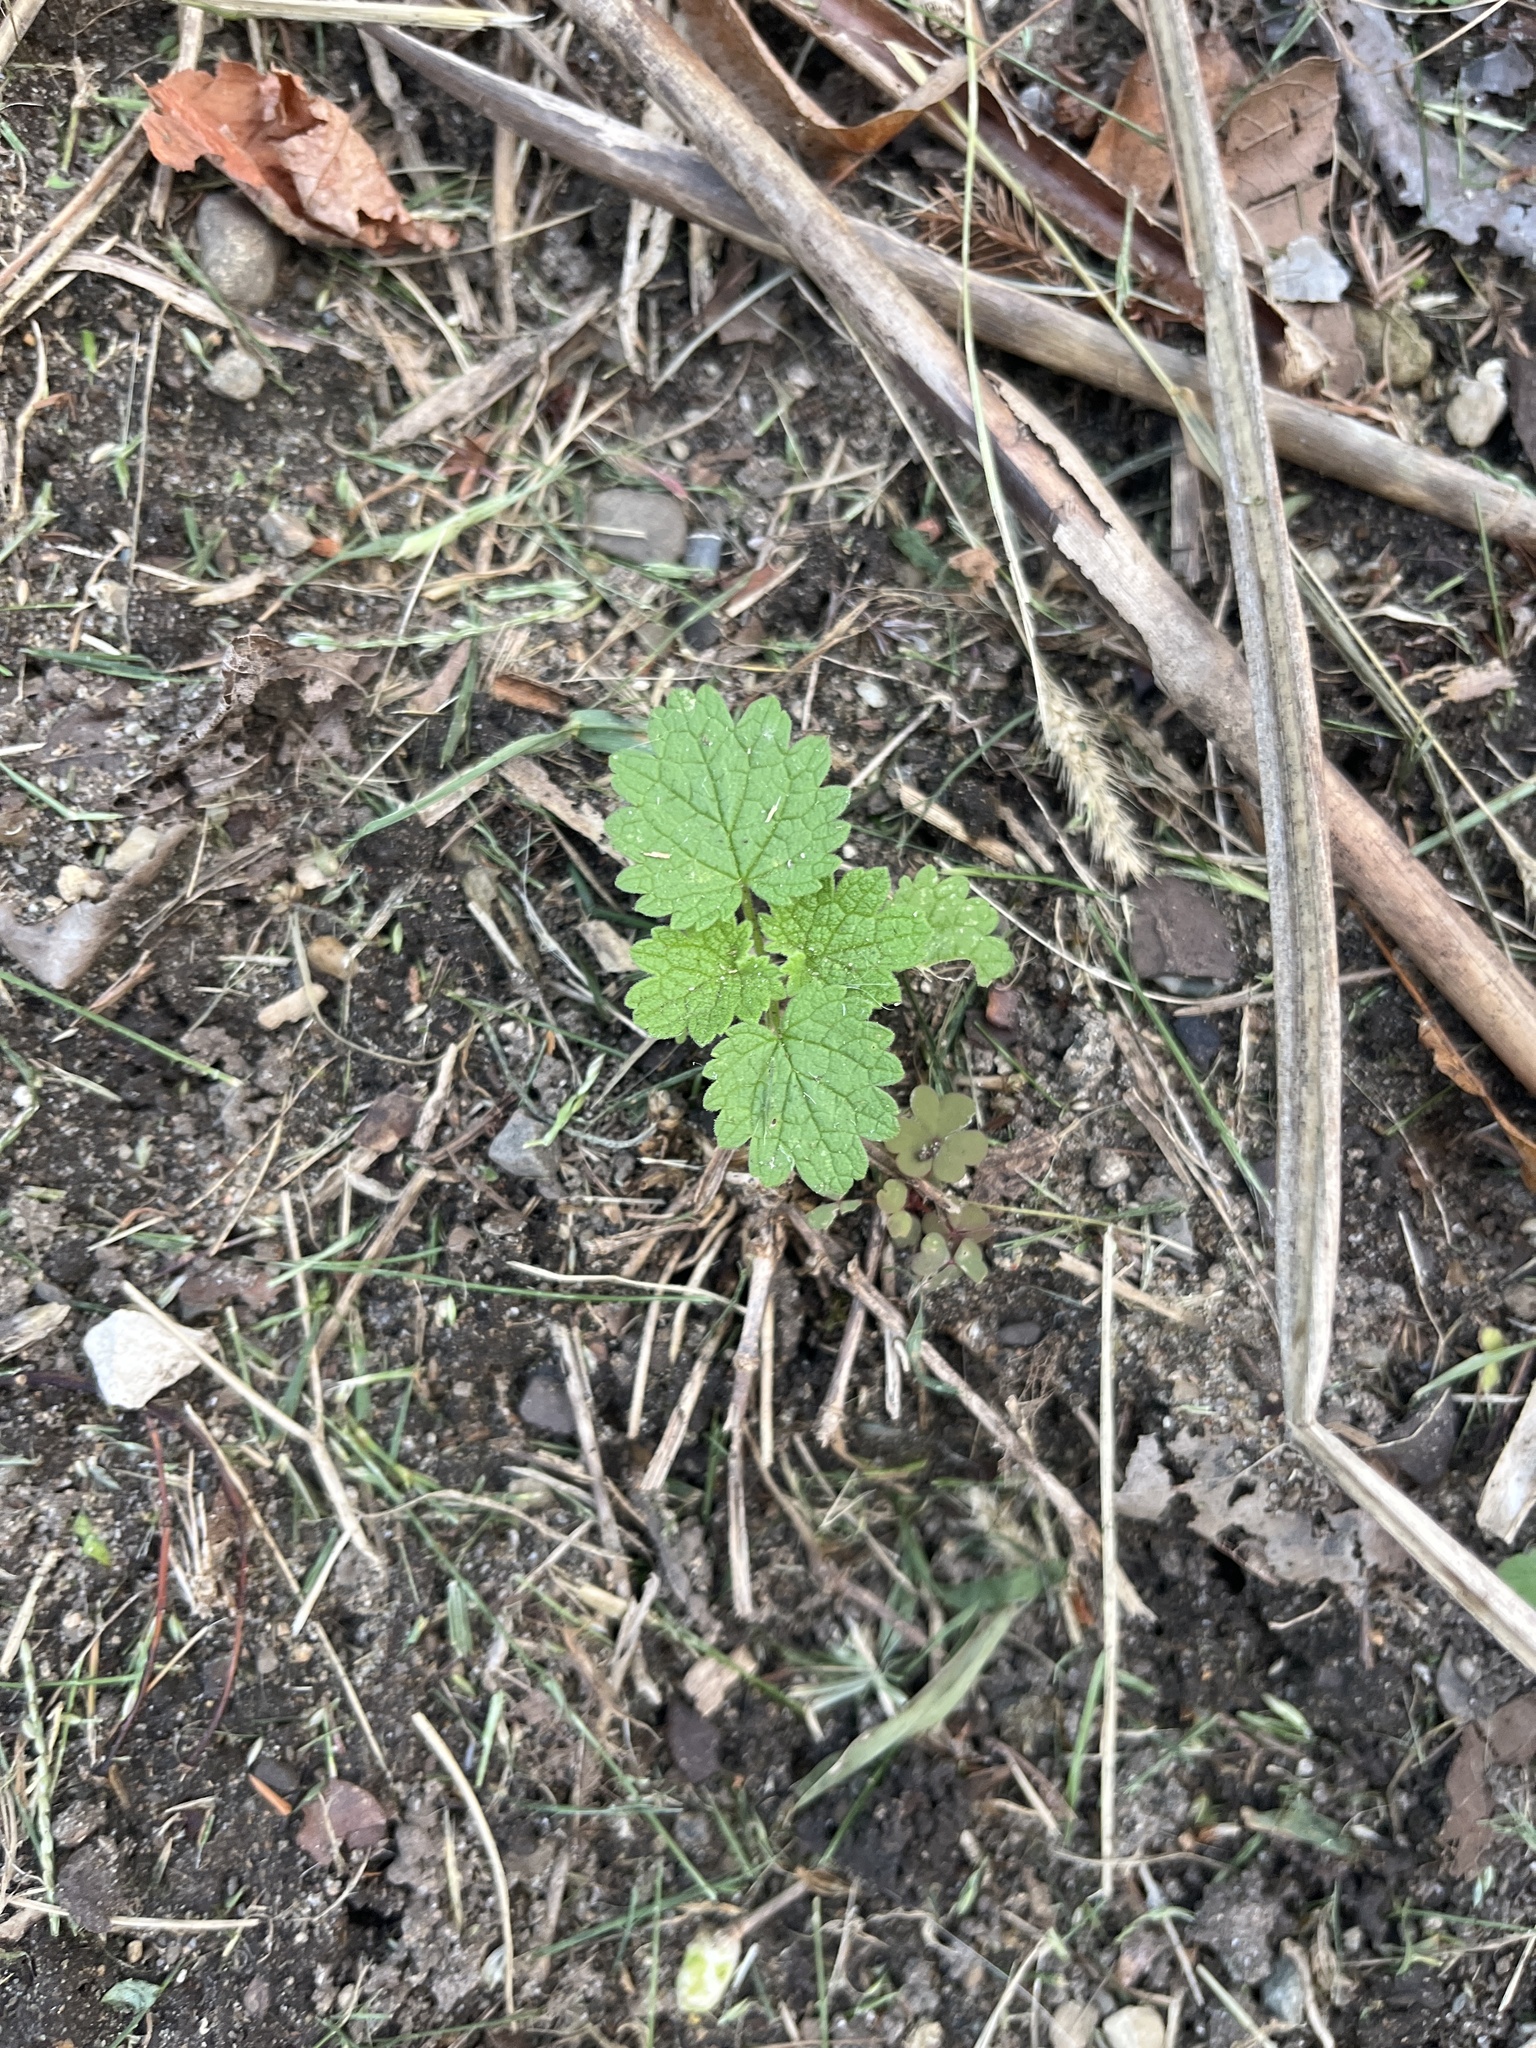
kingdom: Plantae
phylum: Tracheophyta
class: Magnoliopsida
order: Lamiales
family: Lamiaceae
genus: Leonurus
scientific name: Leonurus cardiaca
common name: Motherwort
